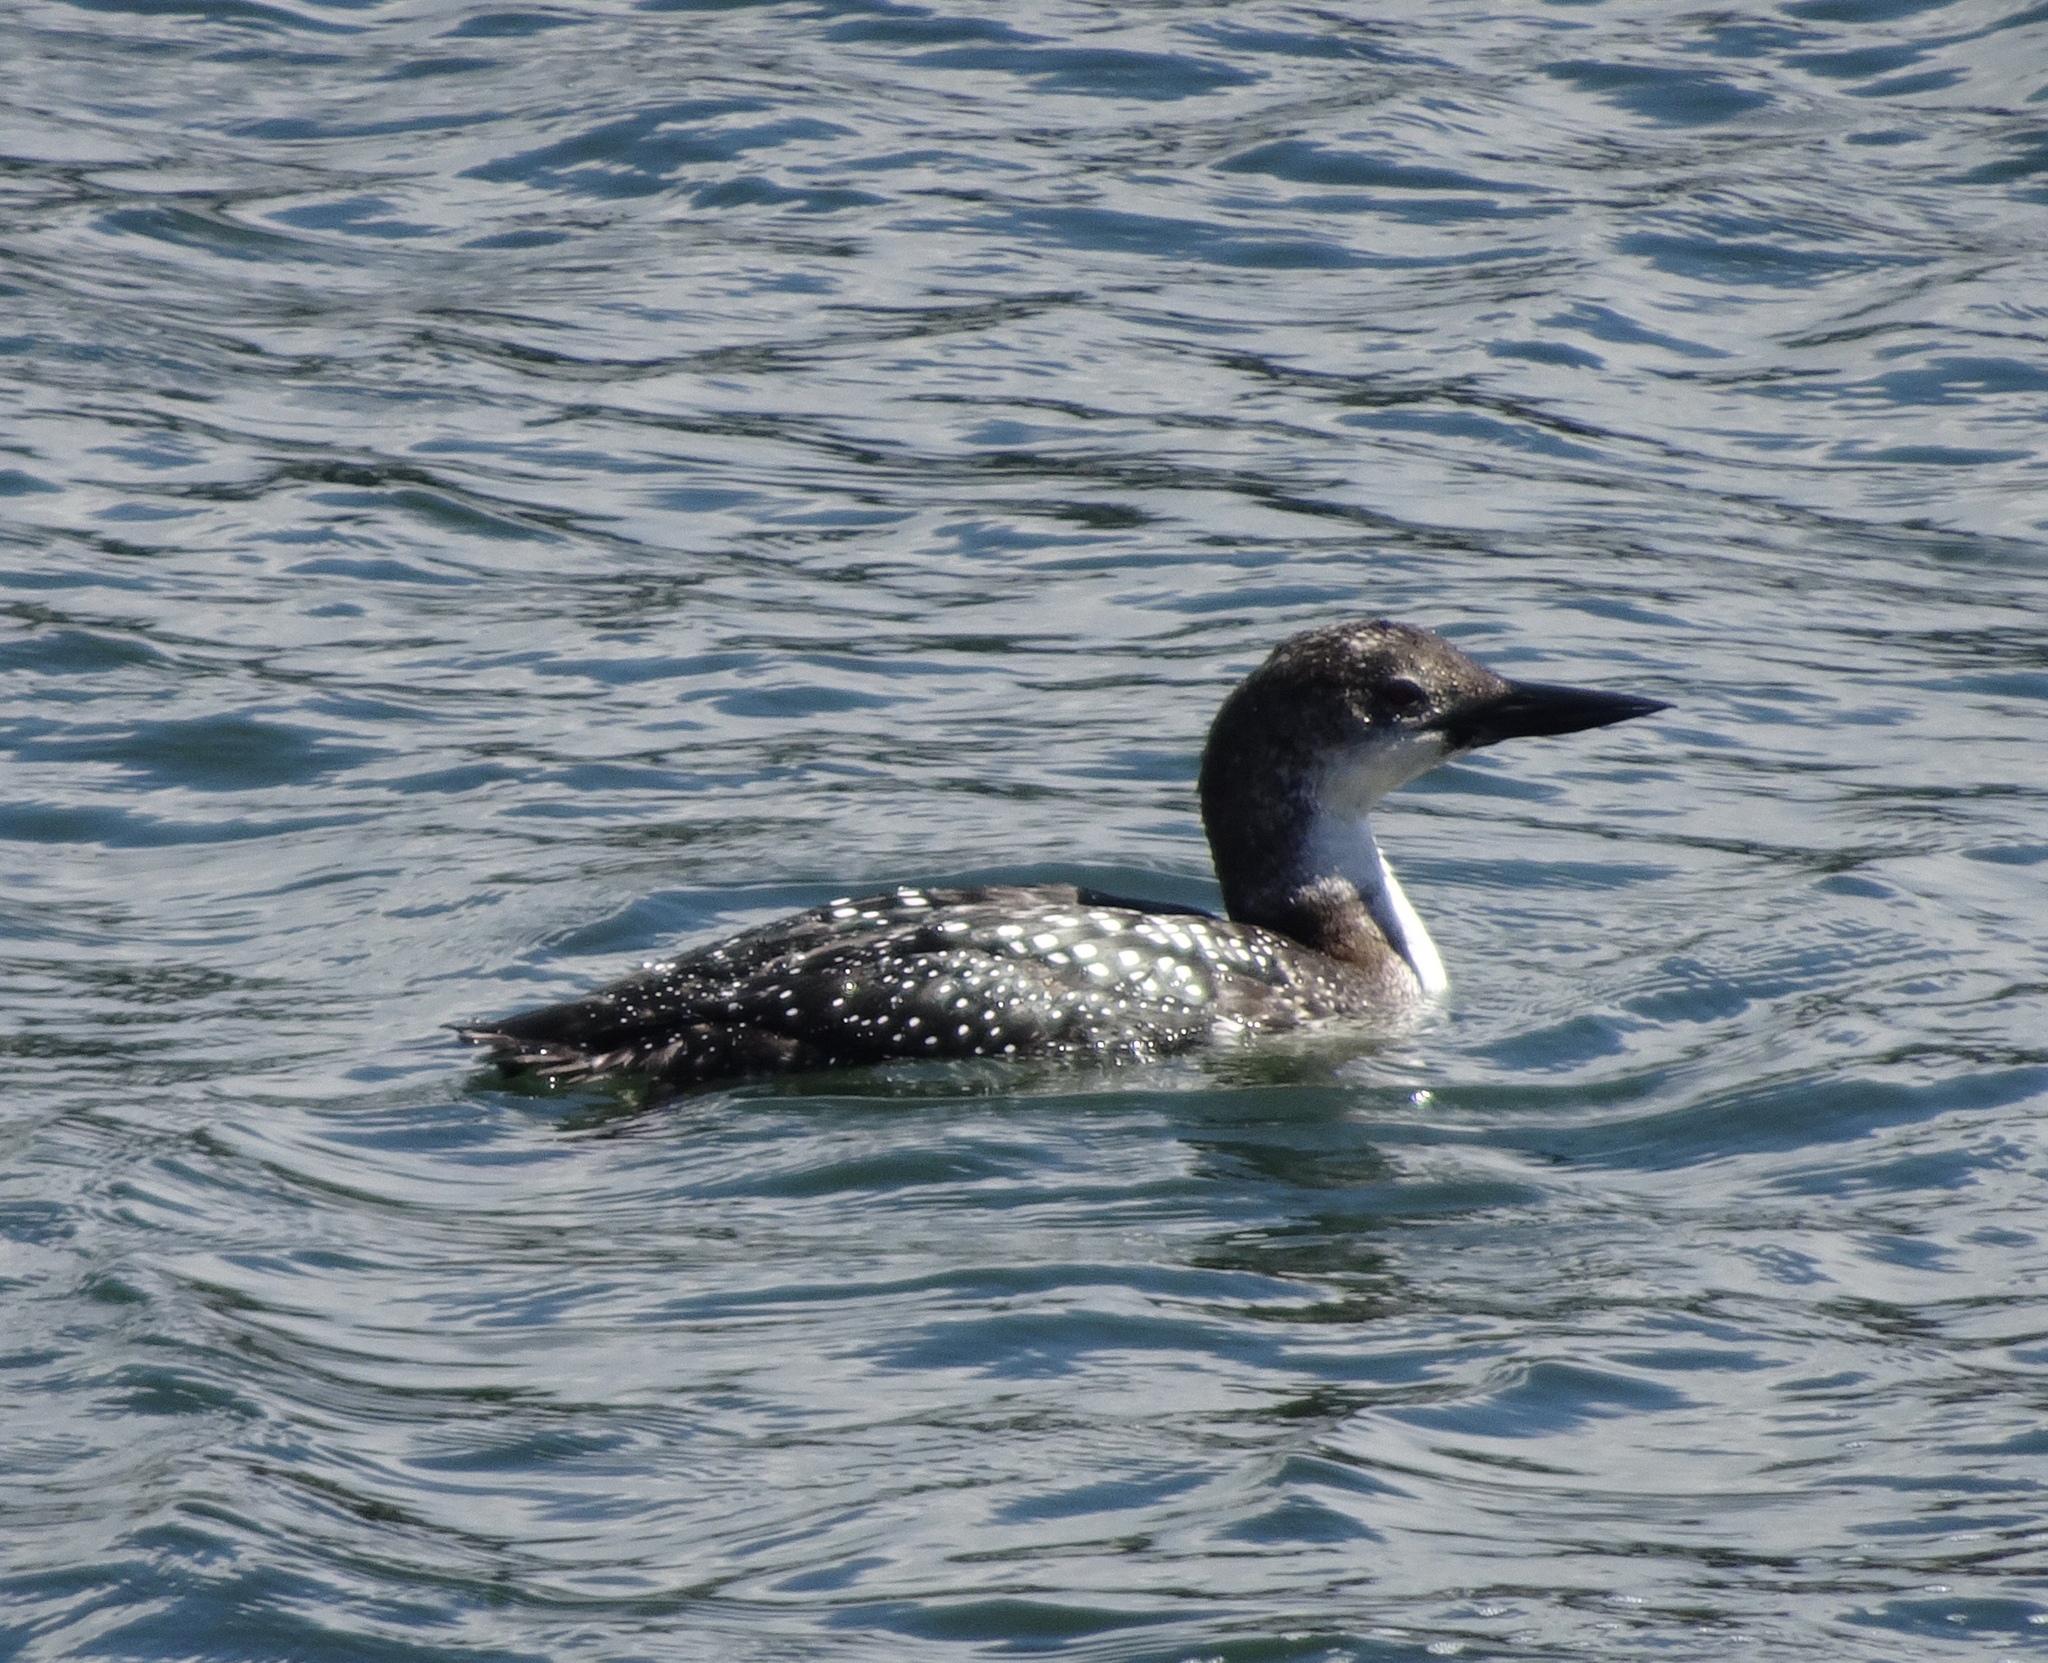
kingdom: Animalia
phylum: Chordata
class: Aves
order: Gaviiformes
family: Gaviidae
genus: Gavia
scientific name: Gavia immer
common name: Common loon
